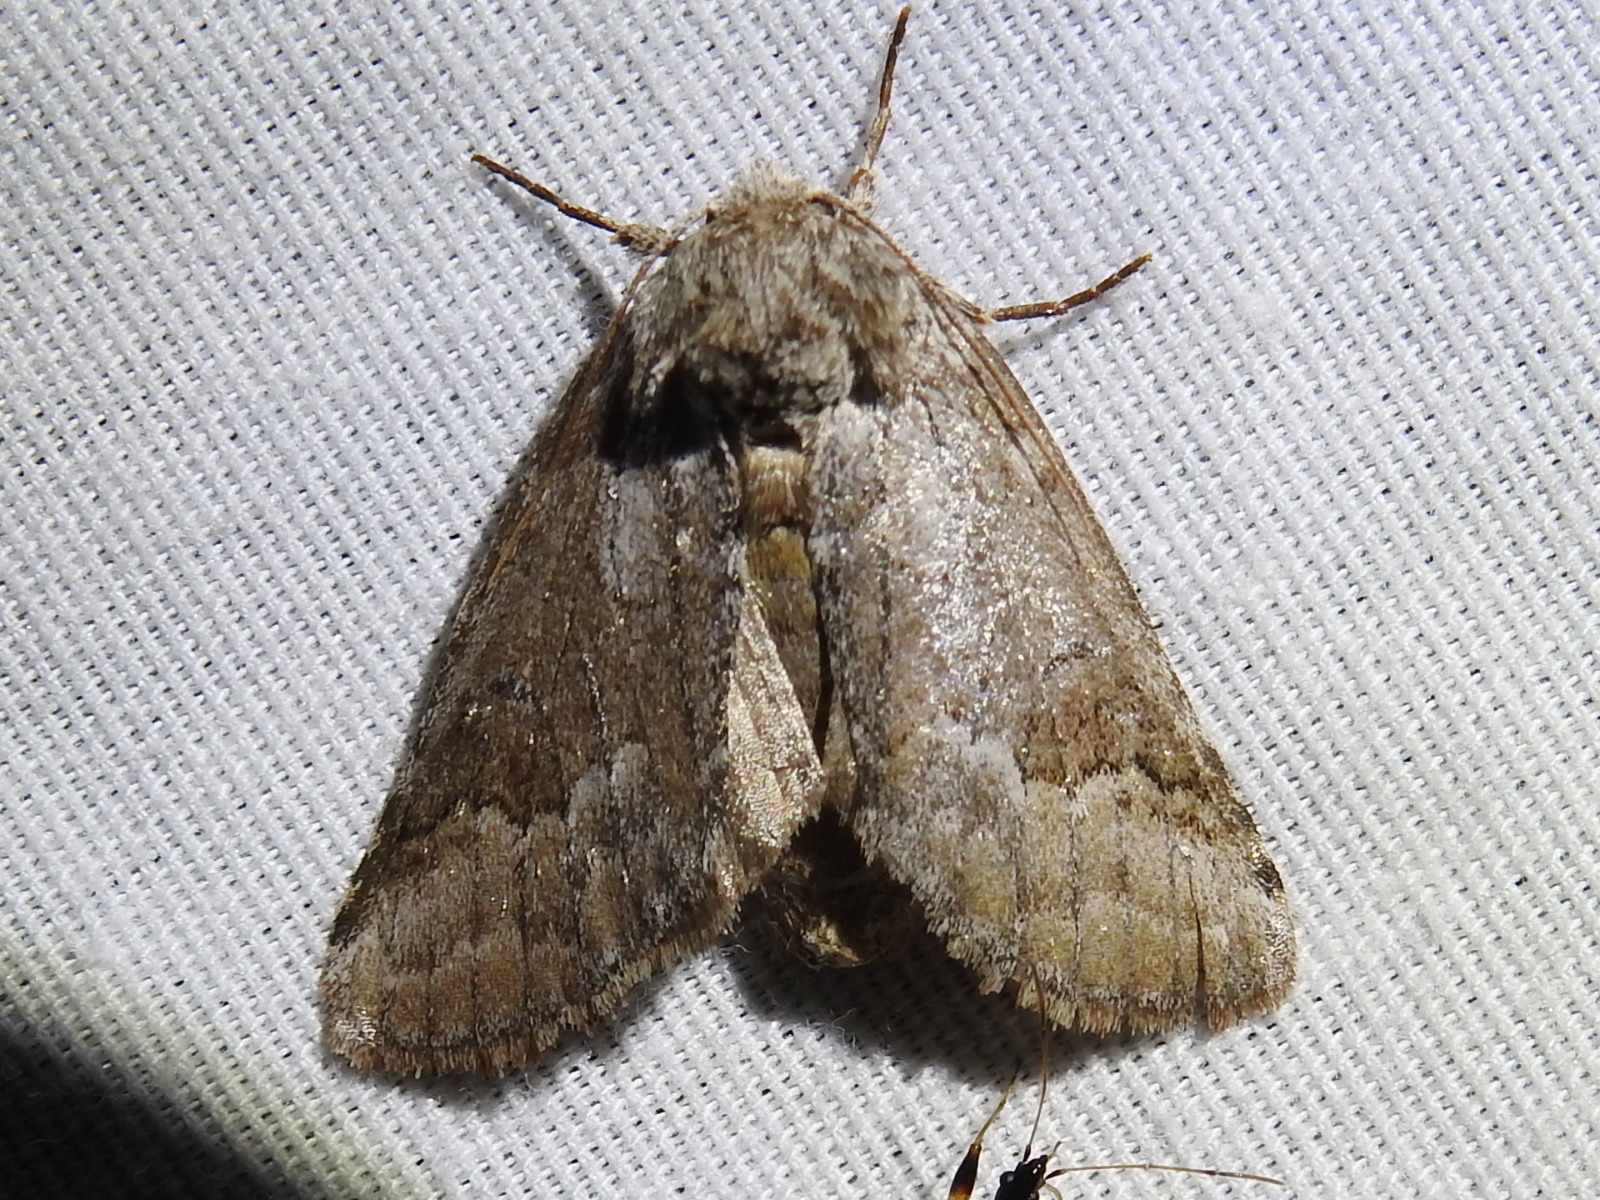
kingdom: Animalia
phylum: Arthropoda
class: Insecta
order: Lepidoptera
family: Notodontidae
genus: Lochmaeus
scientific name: Lochmaeus bilineata
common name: Double-lined prominent
